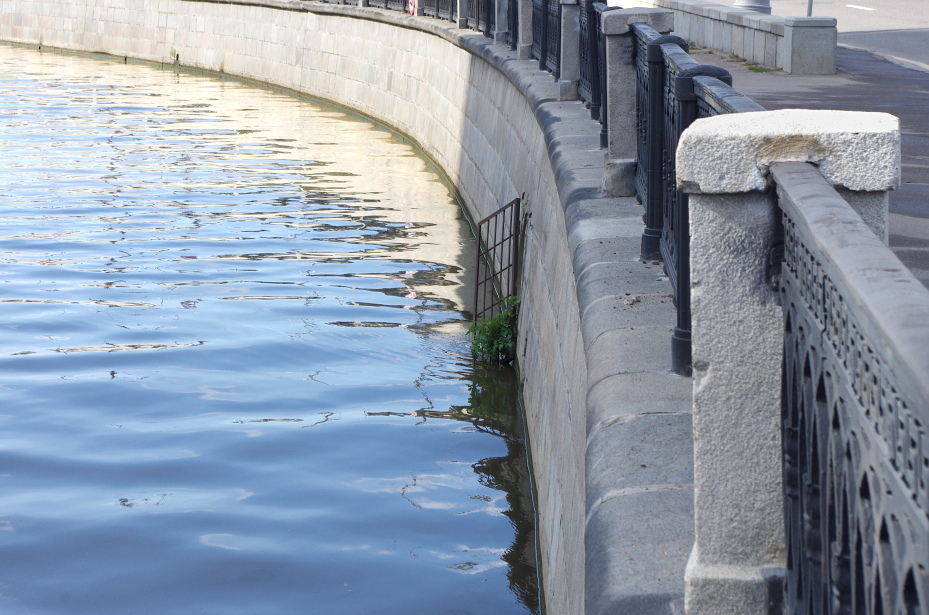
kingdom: Plantae
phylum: Tracheophyta
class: Magnoliopsida
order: Solanales
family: Solanaceae
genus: Solanum
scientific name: Solanum lycopersicum
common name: Garden tomato
